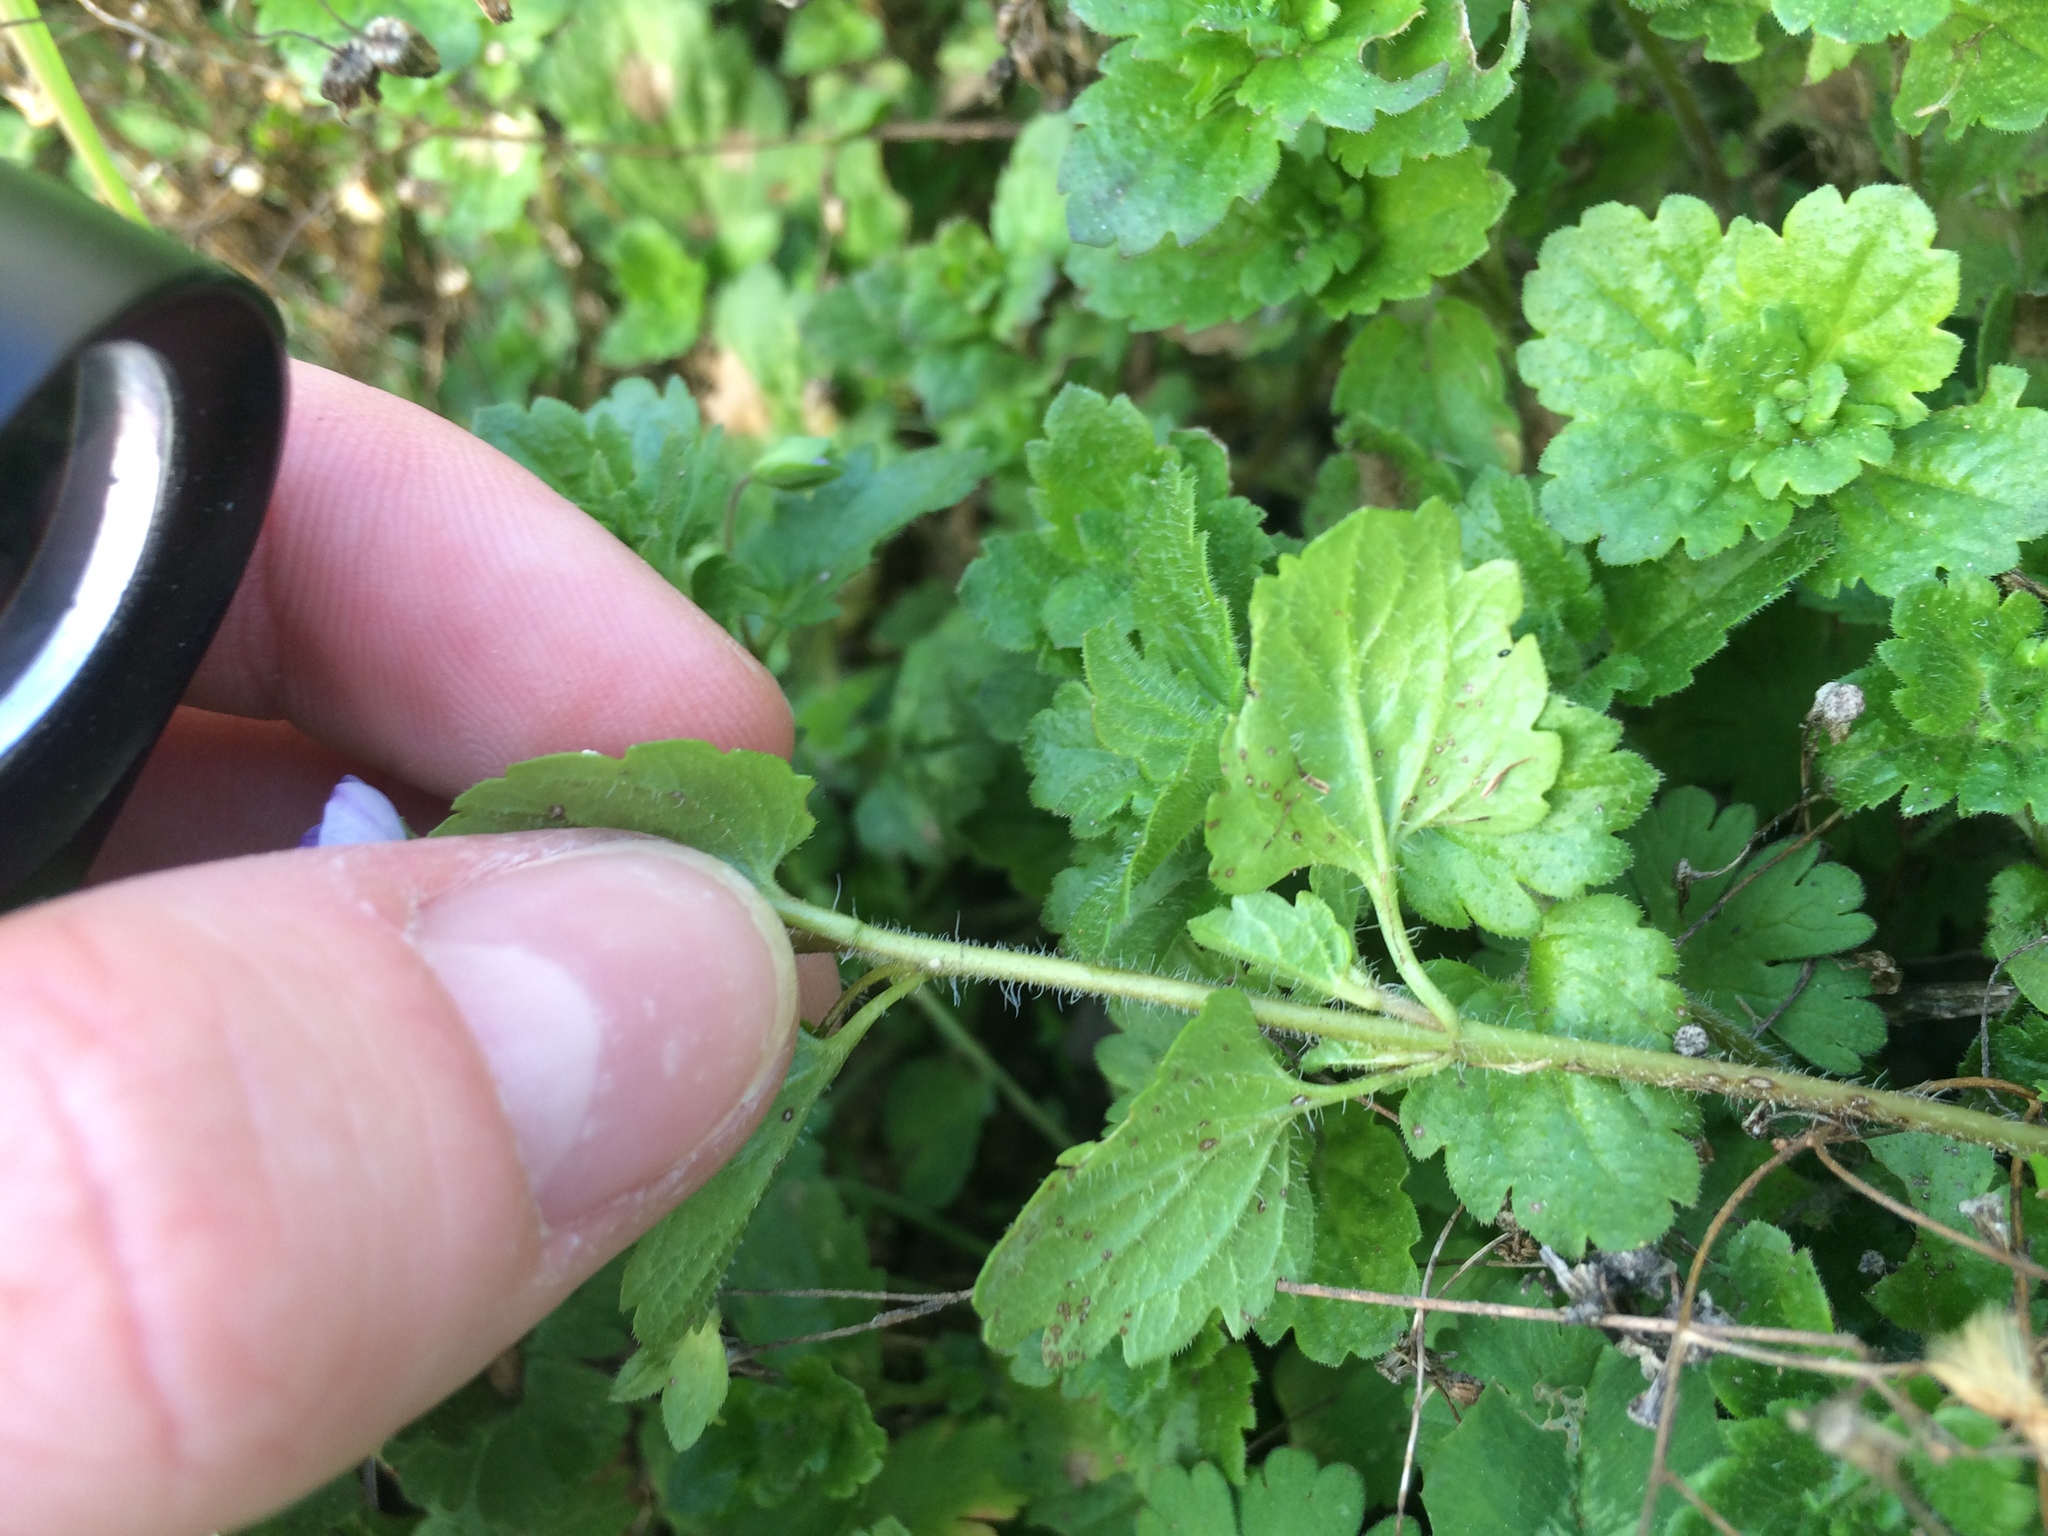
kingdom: Plantae
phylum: Tracheophyta
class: Magnoliopsida
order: Lamiales
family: Plantaginaceae
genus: Veronica
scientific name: Veronica persica
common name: Common field-speedwell
